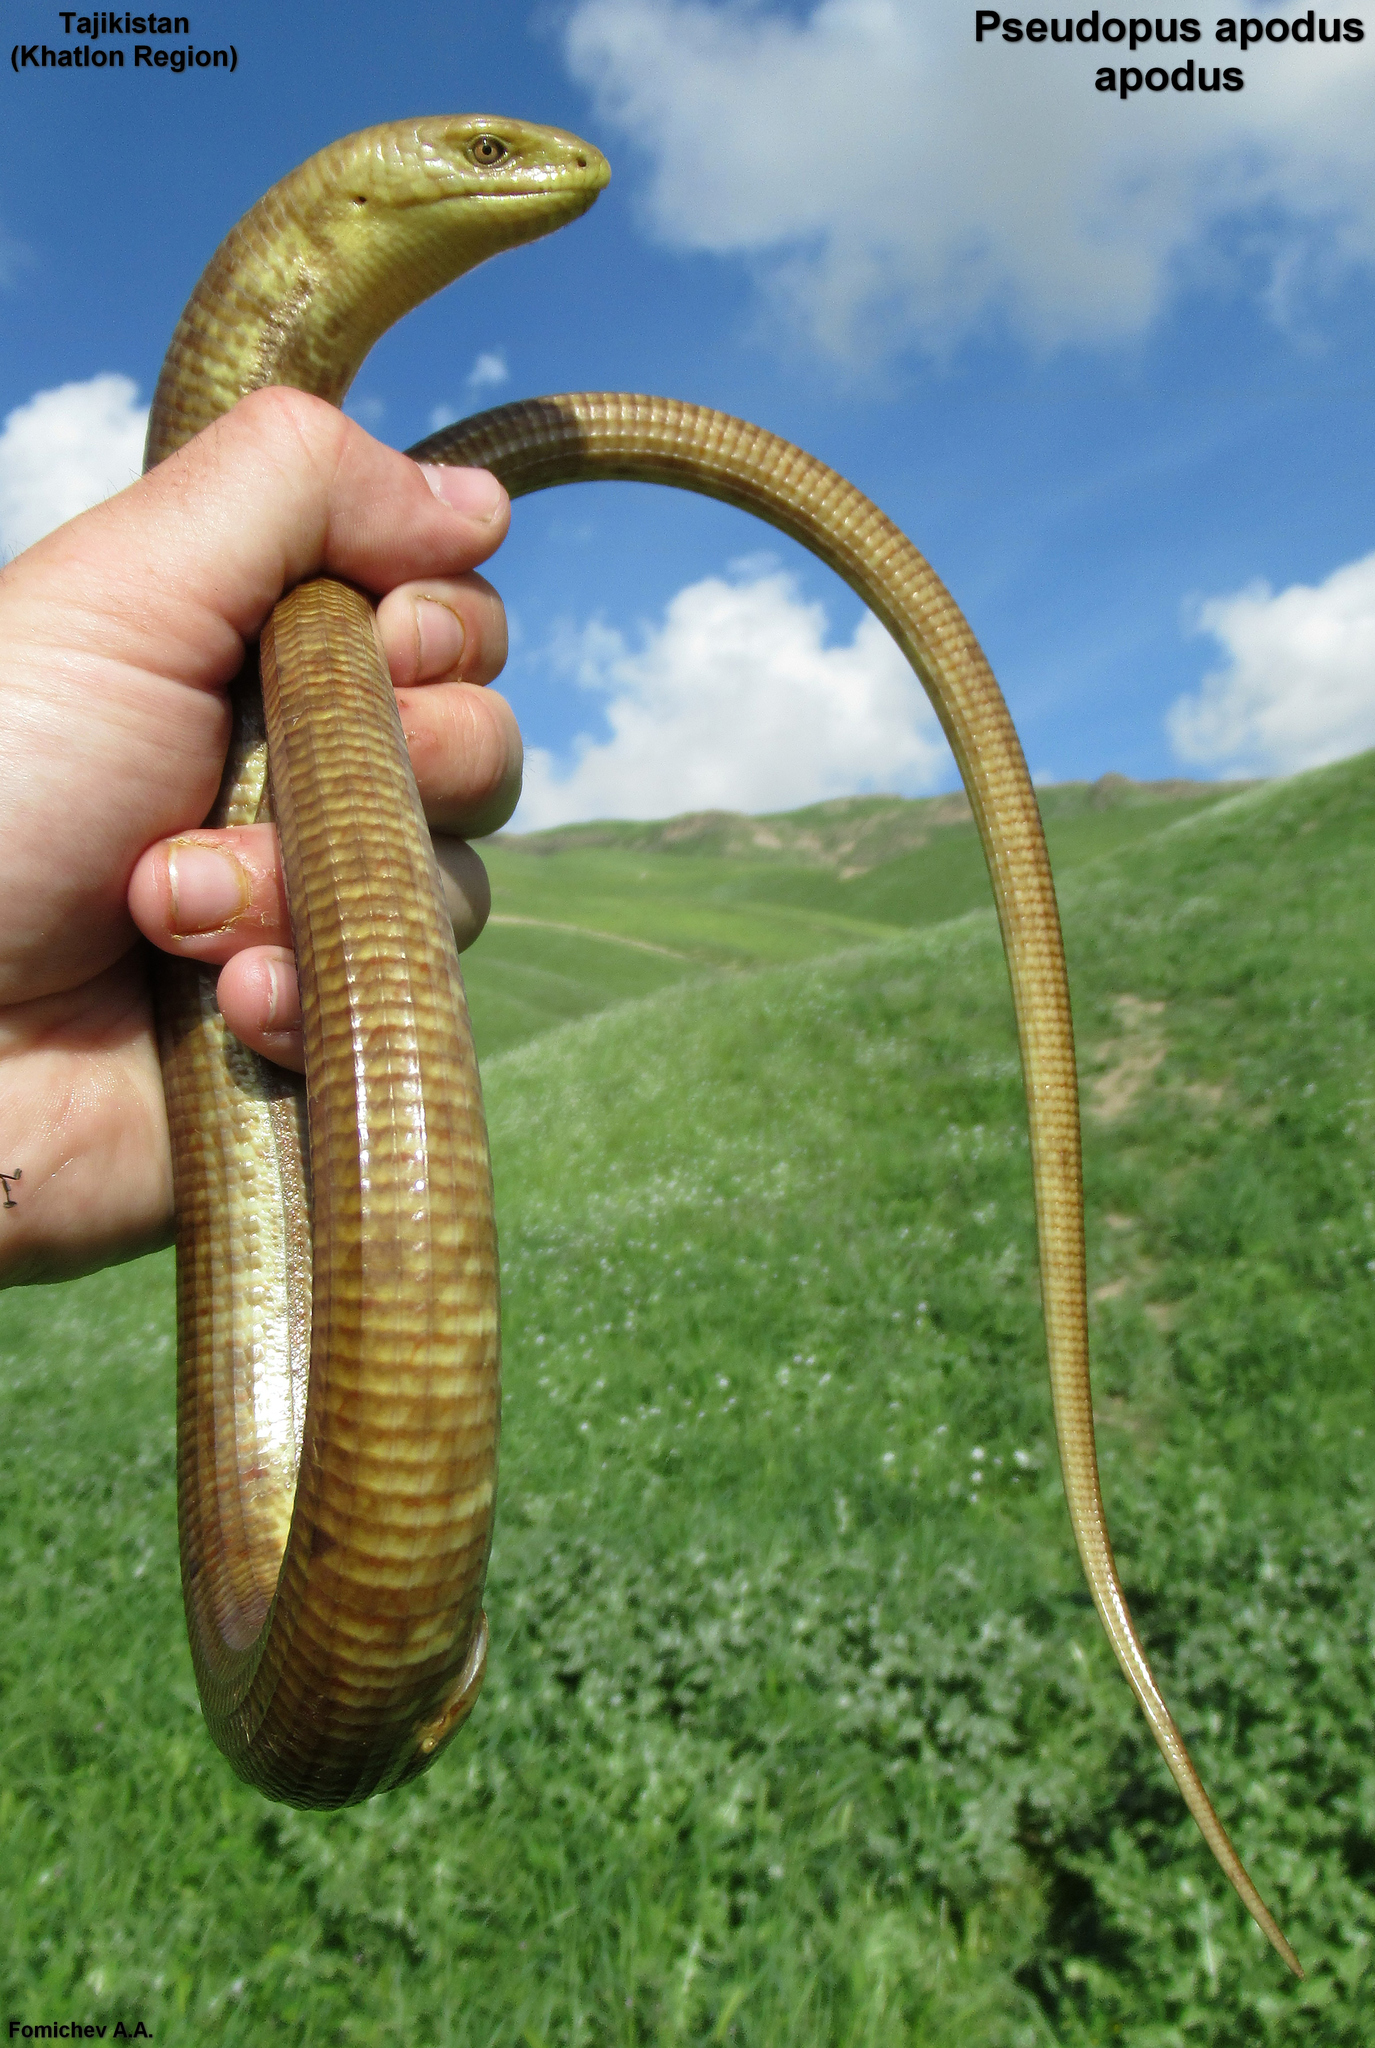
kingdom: Animalia
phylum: Chordata
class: Squamata
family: Anguidae
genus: Pseudopus
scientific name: Pseudopus apodus
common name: European glass lizard
